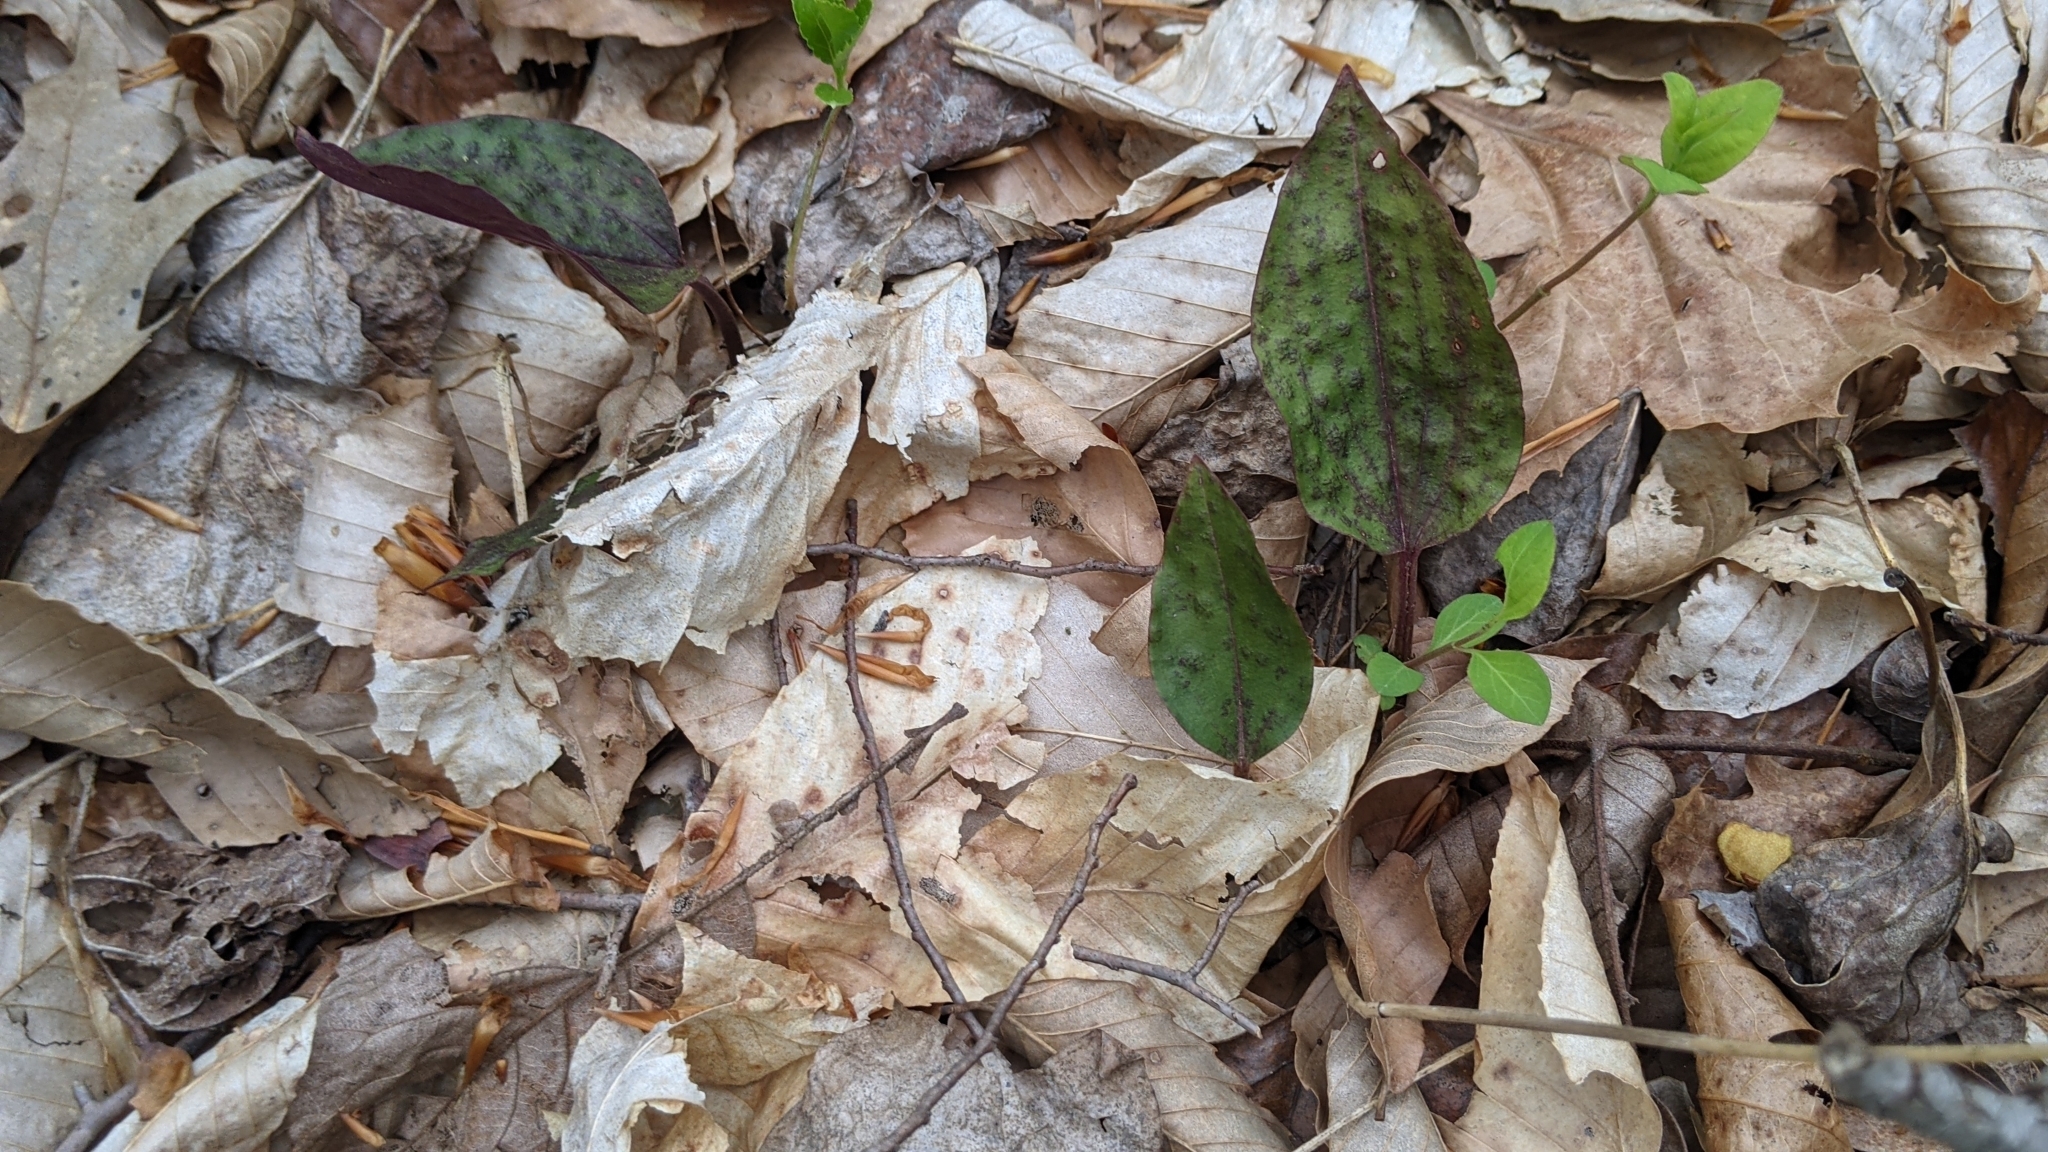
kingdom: Plantae
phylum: Tracheophyta
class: Liliopsida
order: Asparagales
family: Orchidaceae
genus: Tipularia
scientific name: Tipularia discolor
